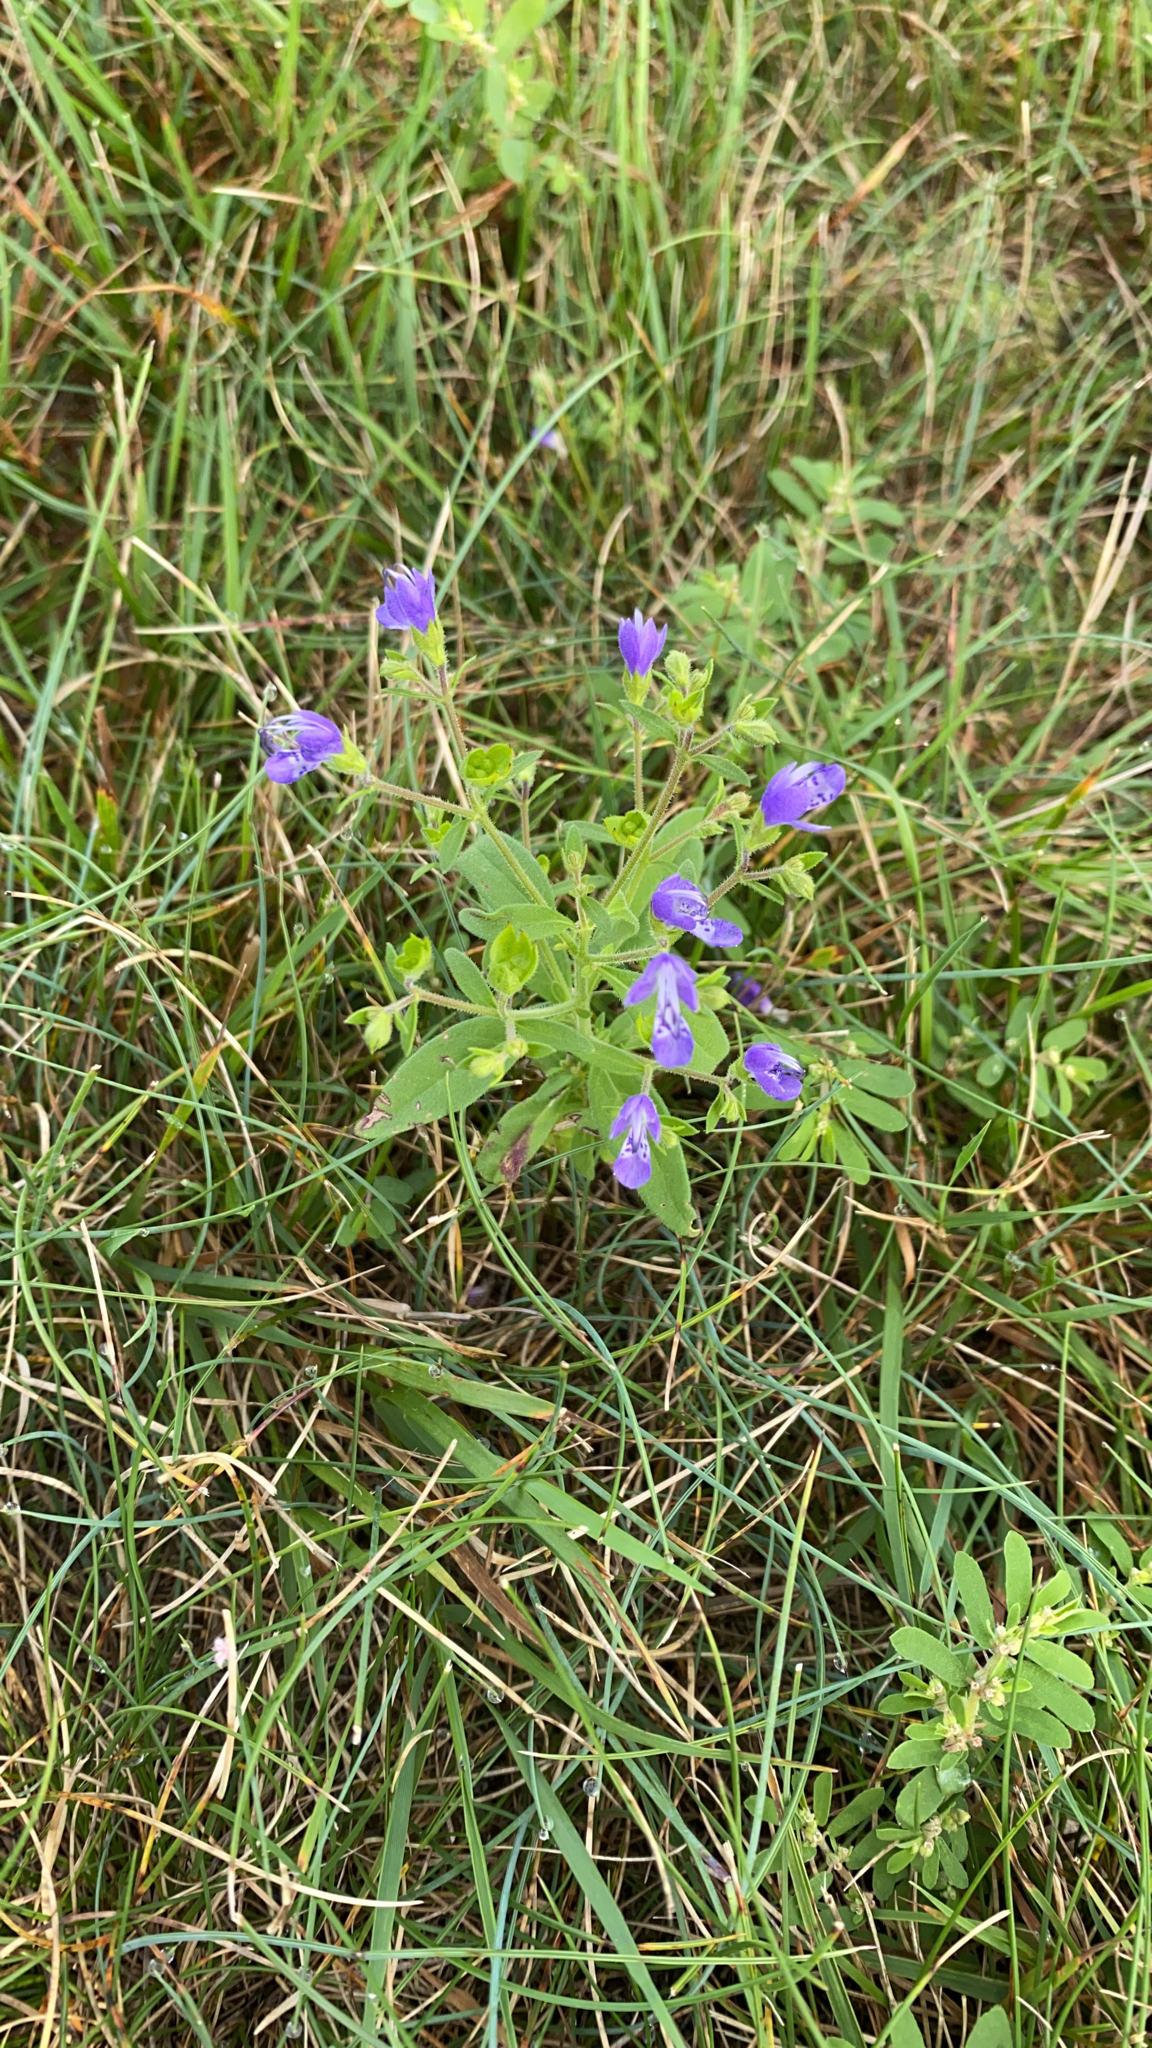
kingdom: Plantae
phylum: Tracheophyta
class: Magnoliopsida
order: Lamiales
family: Lamiaceae
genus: Trichostema
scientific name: Trichostema dichotomum
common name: Bastard pennyroyal
